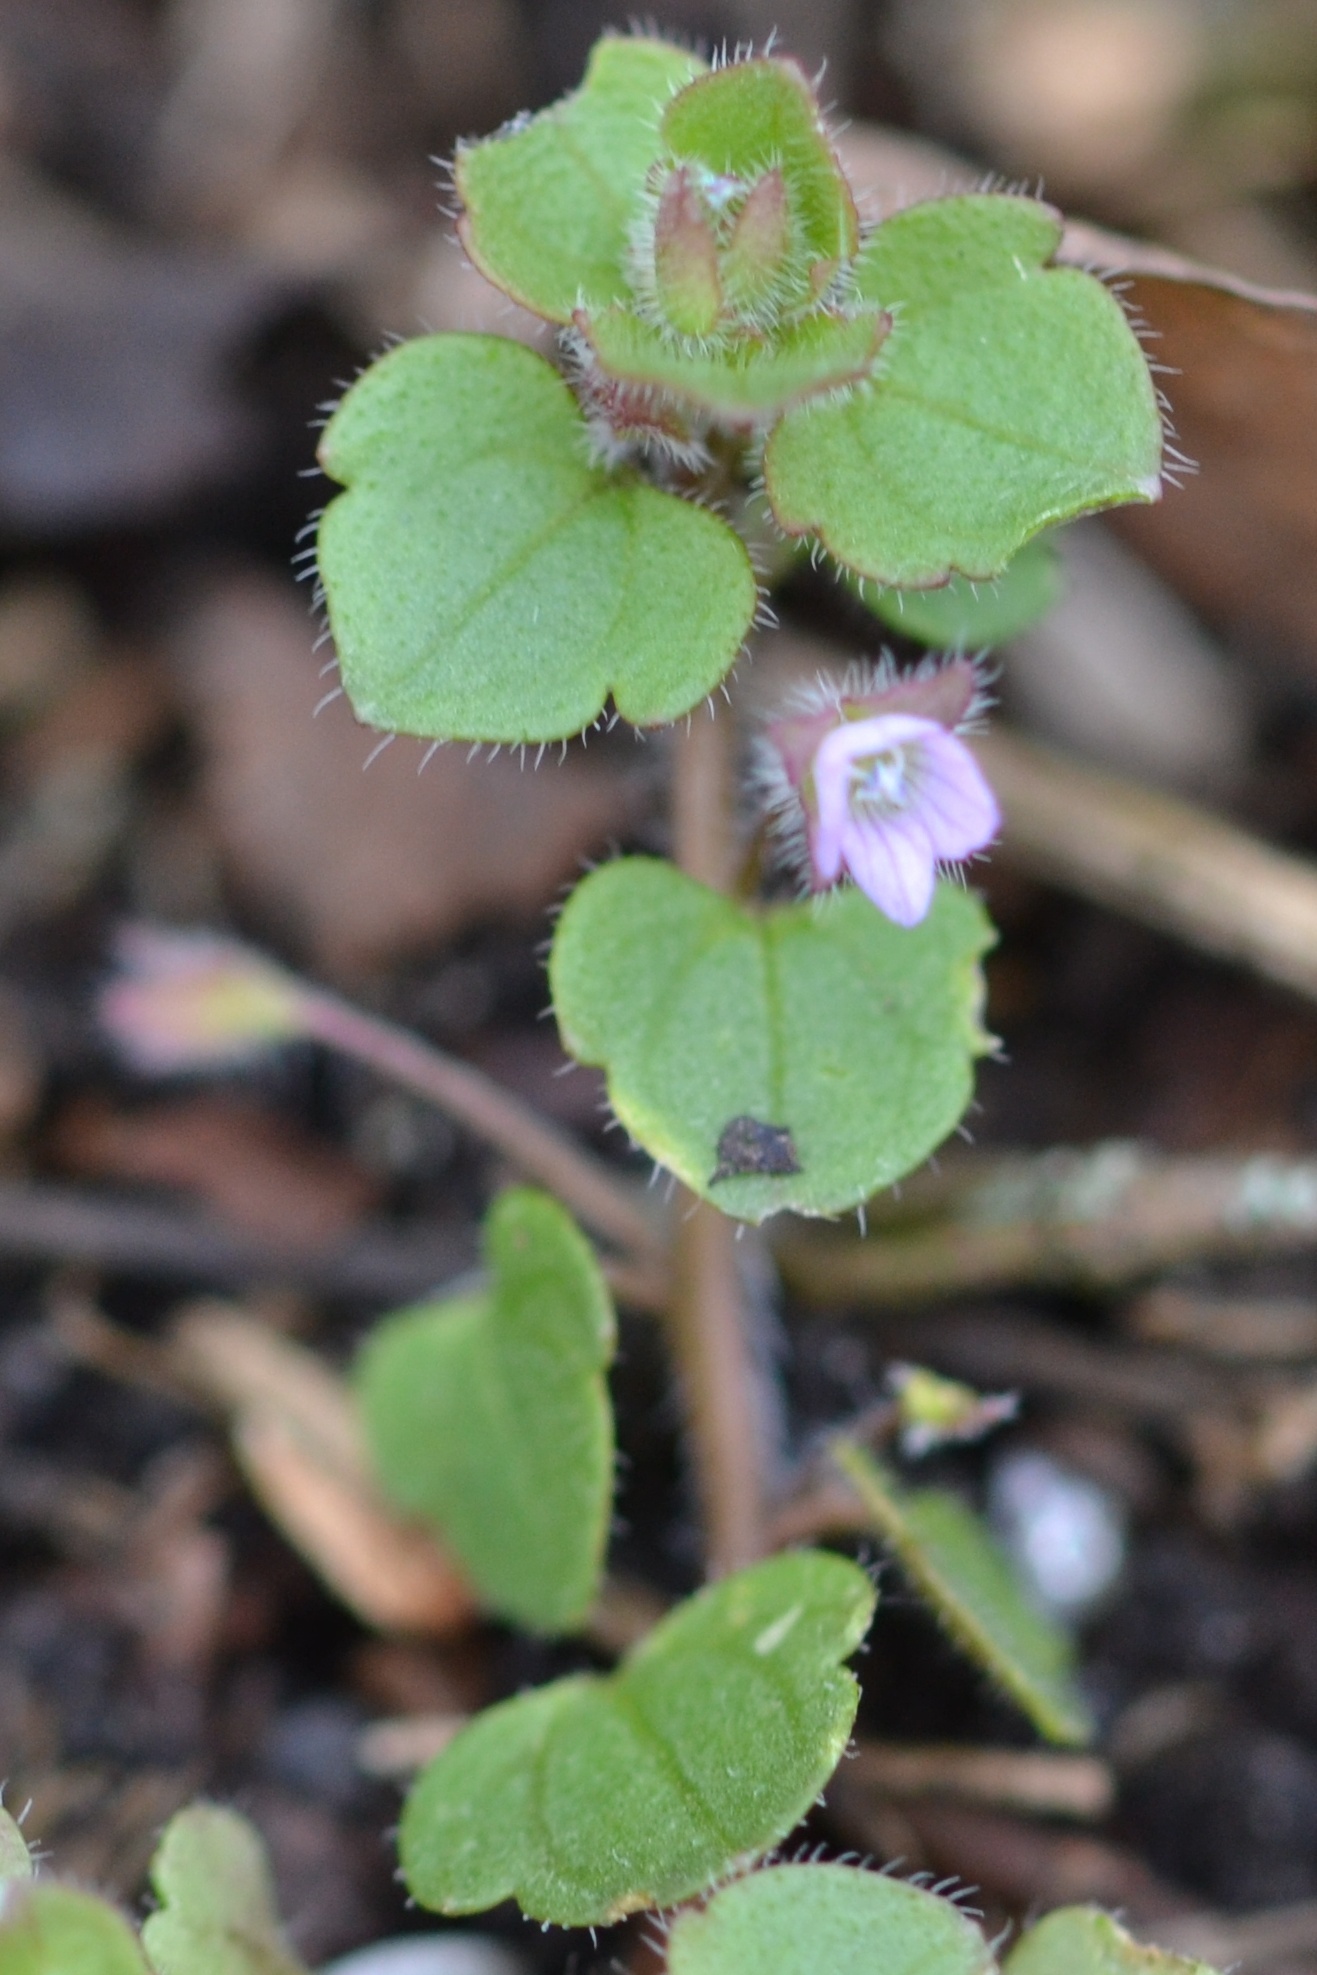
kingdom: Plantae
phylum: Tracheophyta
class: Magnoliopsida
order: Lamiales
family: Plantaginaceae
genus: Veronica
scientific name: Veronica sublobata
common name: False ivy-leaved speedwell
